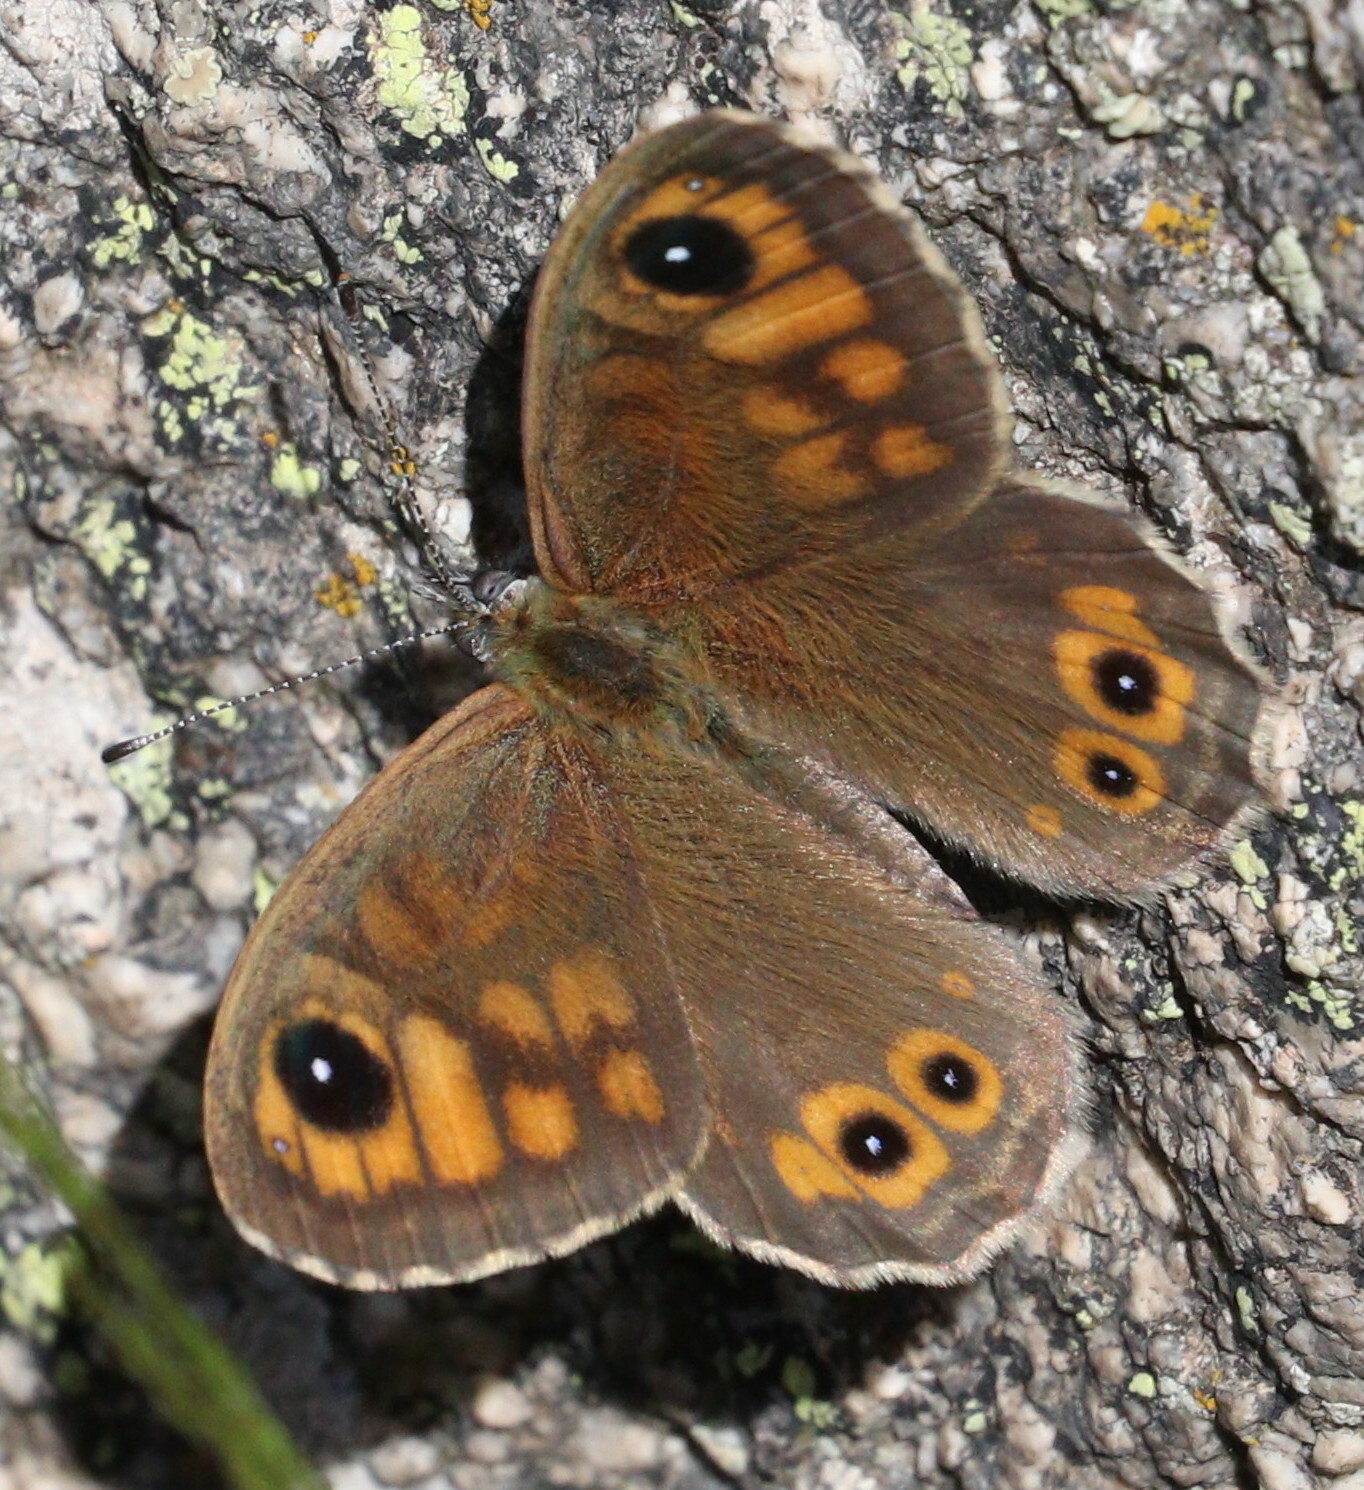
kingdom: Animalia
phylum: Arthropoda
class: Insecta
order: Lepidoptera
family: Nymphalidae
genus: Pararge
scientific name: Pararge Lasiommata maera
